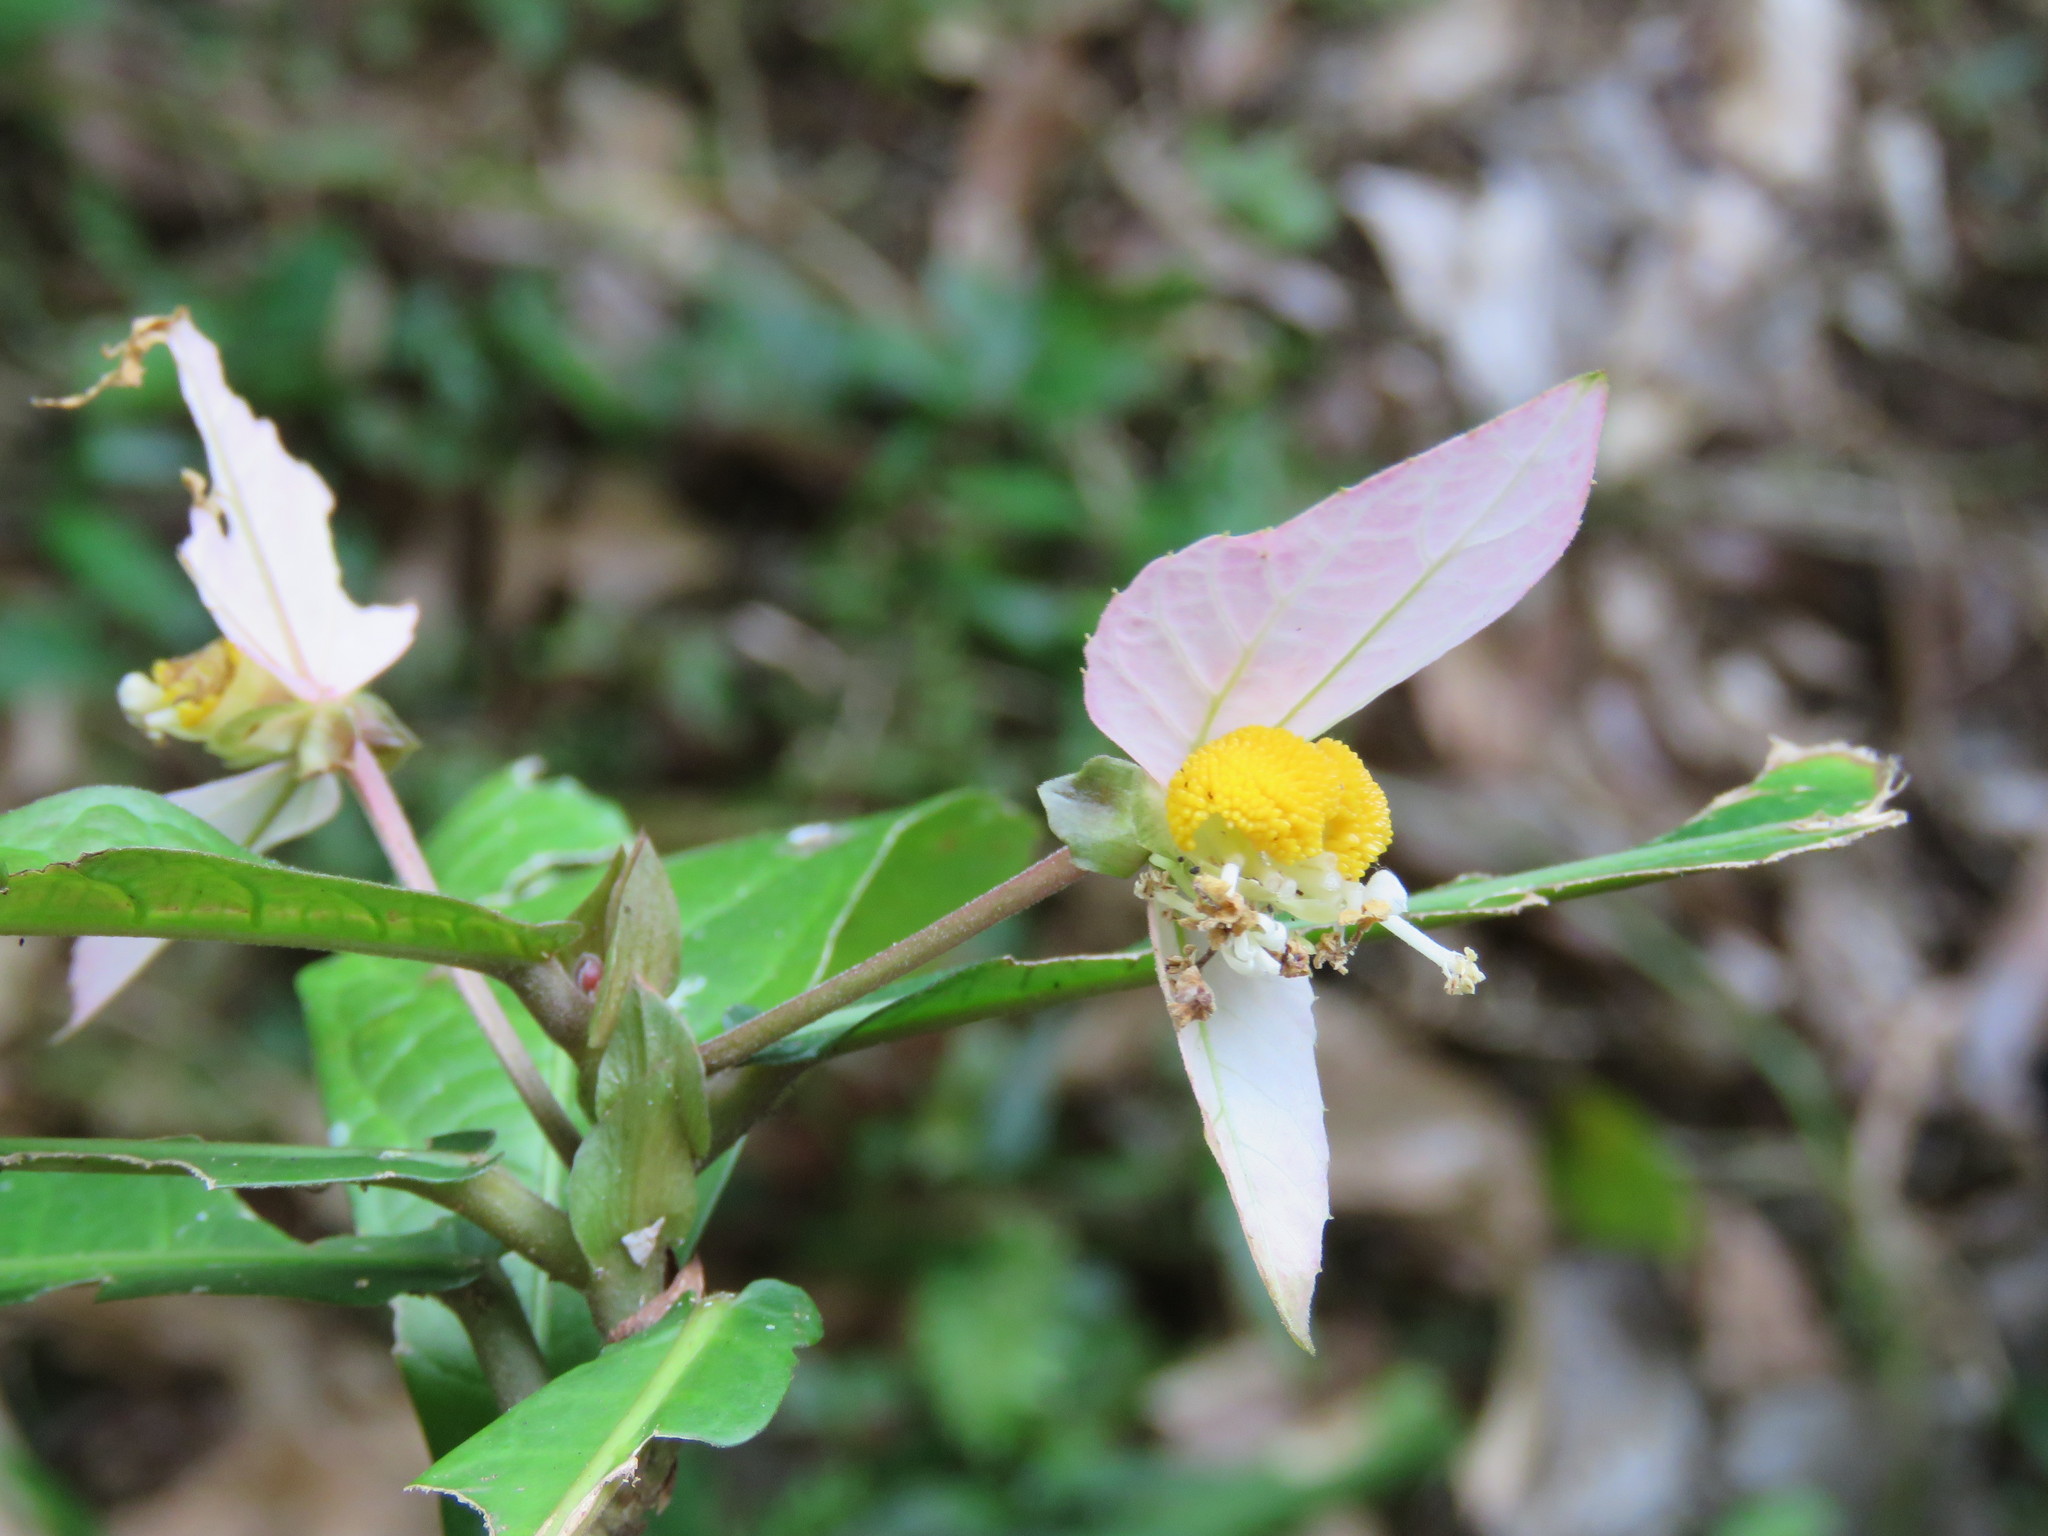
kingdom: Plantae
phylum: Tracheophyta
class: Magnoliopsida
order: Malpighiales
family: Euphorbiaceae
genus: Dalechampia
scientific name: Dalechampia spathulata
